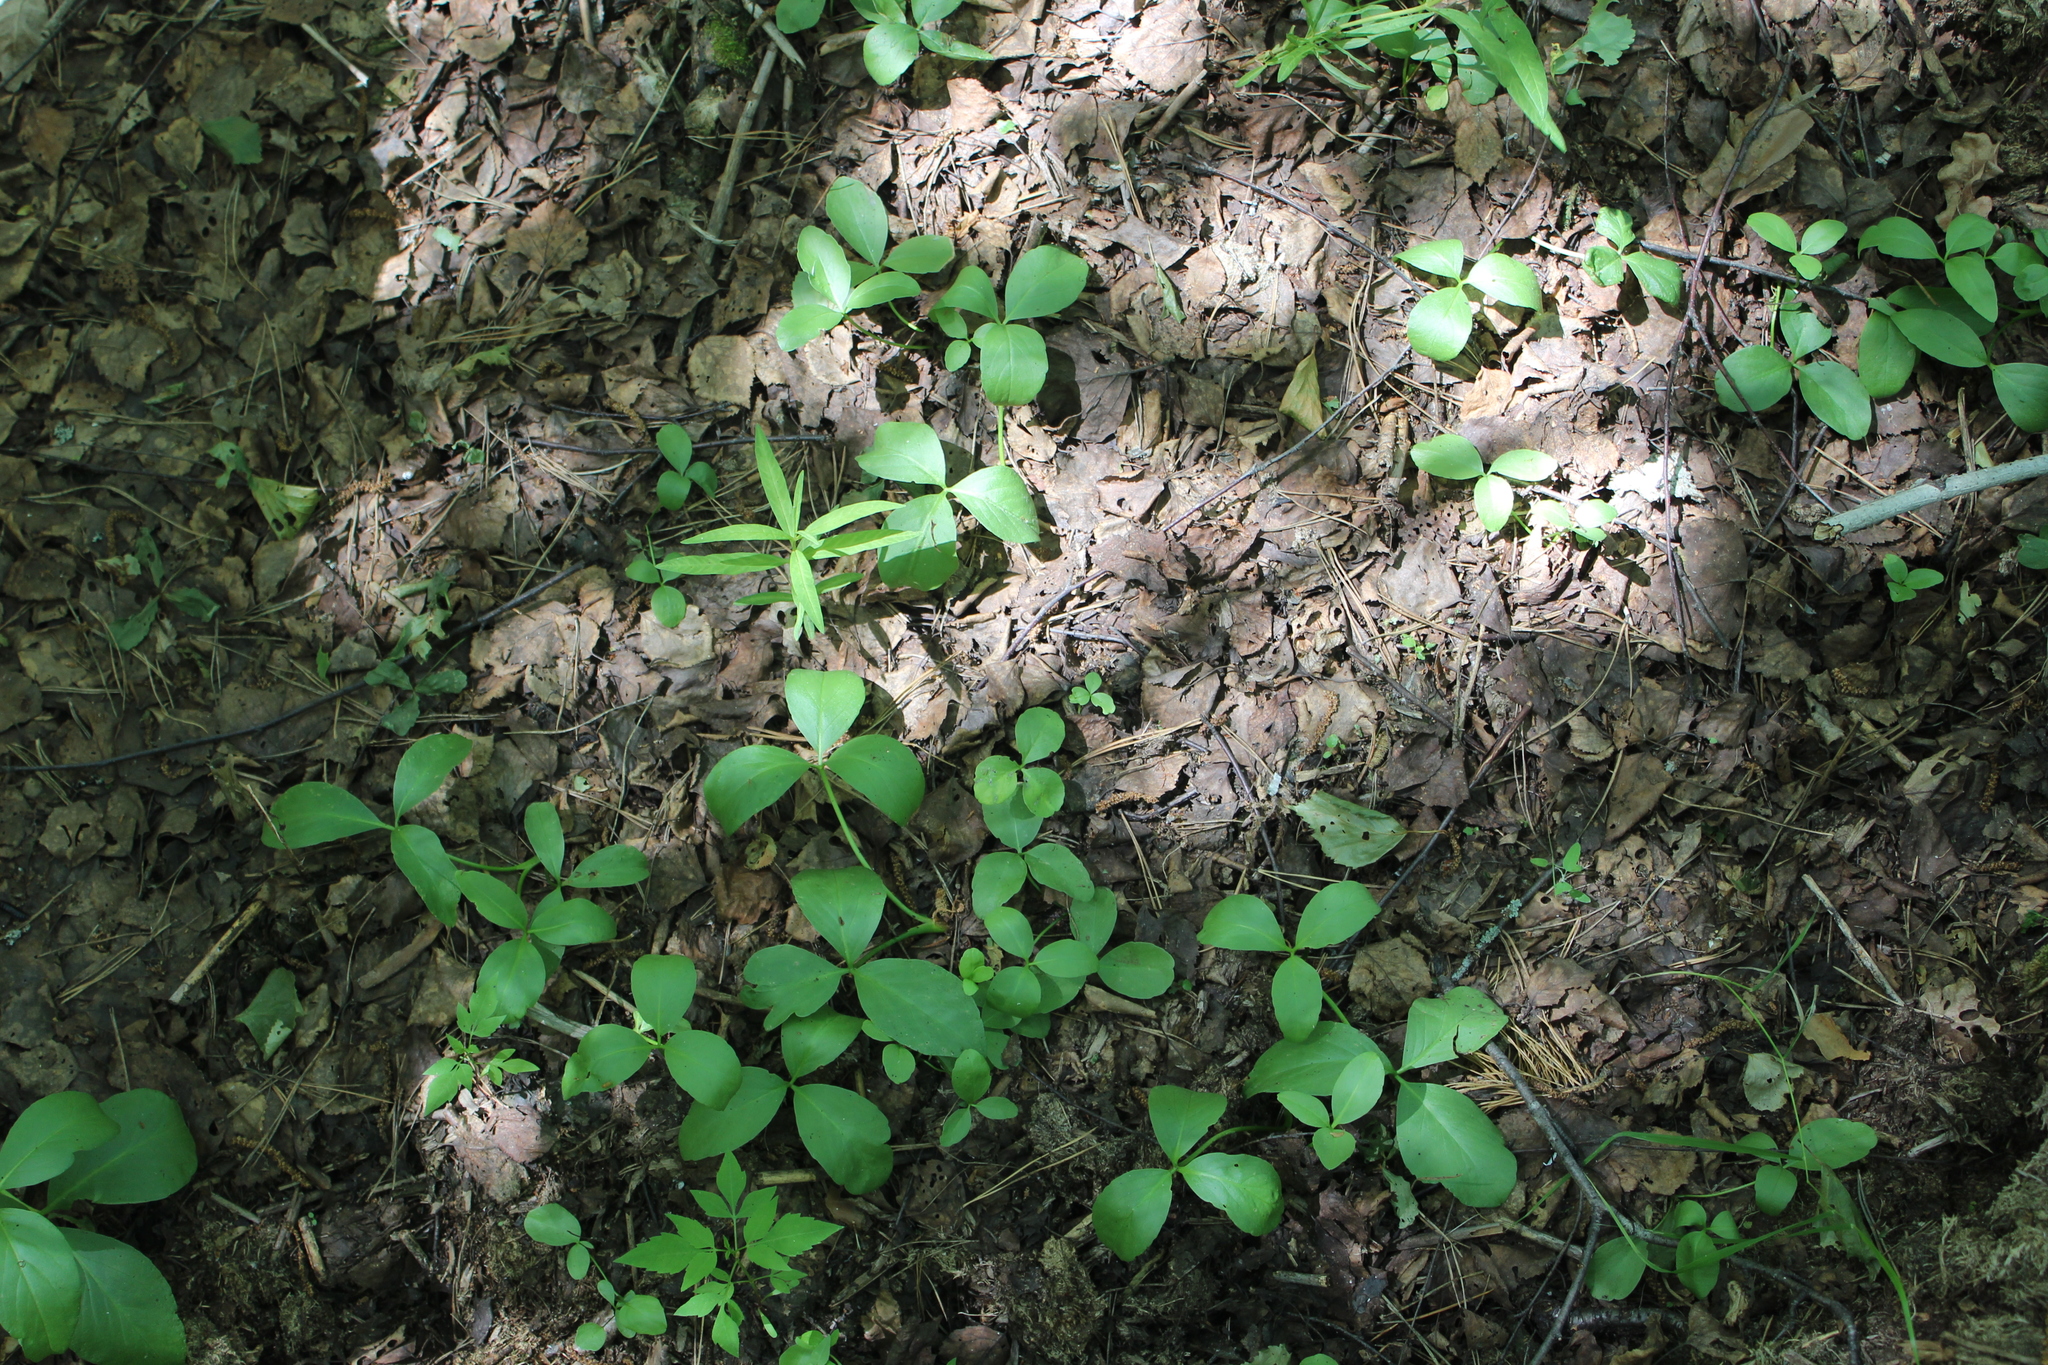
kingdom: Plantae
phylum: Tracheophyta
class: Magnoliopsida
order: Asterales
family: Menyanthaceae
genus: Menyanthes
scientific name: Menyanthes trifoliata
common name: Bogbean
